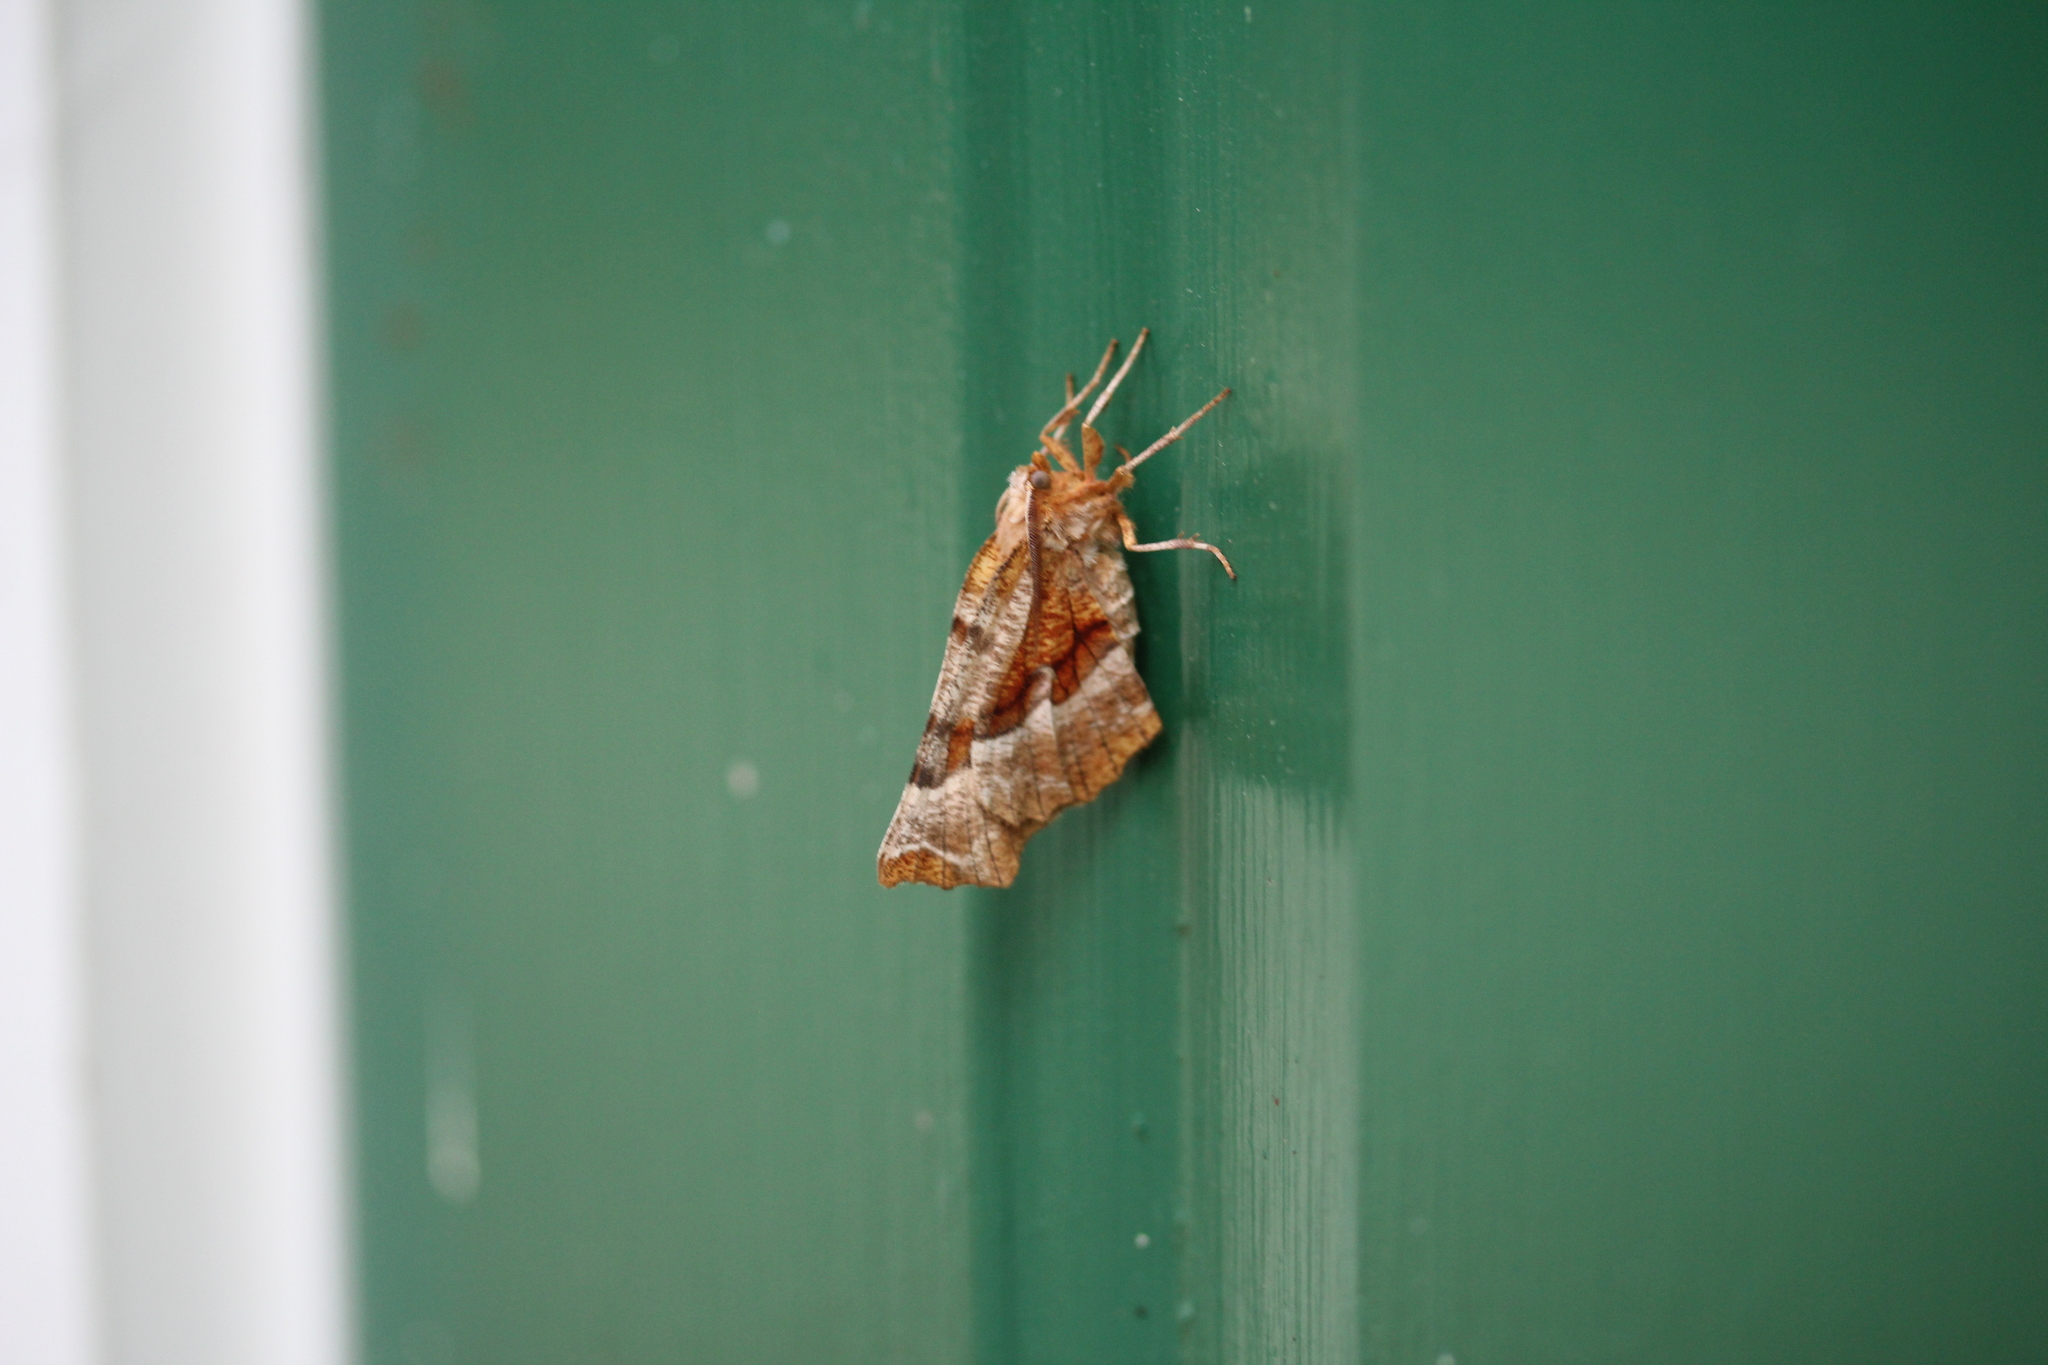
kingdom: Animalia
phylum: Arthropoda
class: Insecta
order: Lepidoptera
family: Geometridae
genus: Selenia
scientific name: Selenia kentaria
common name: Kent's geometer
